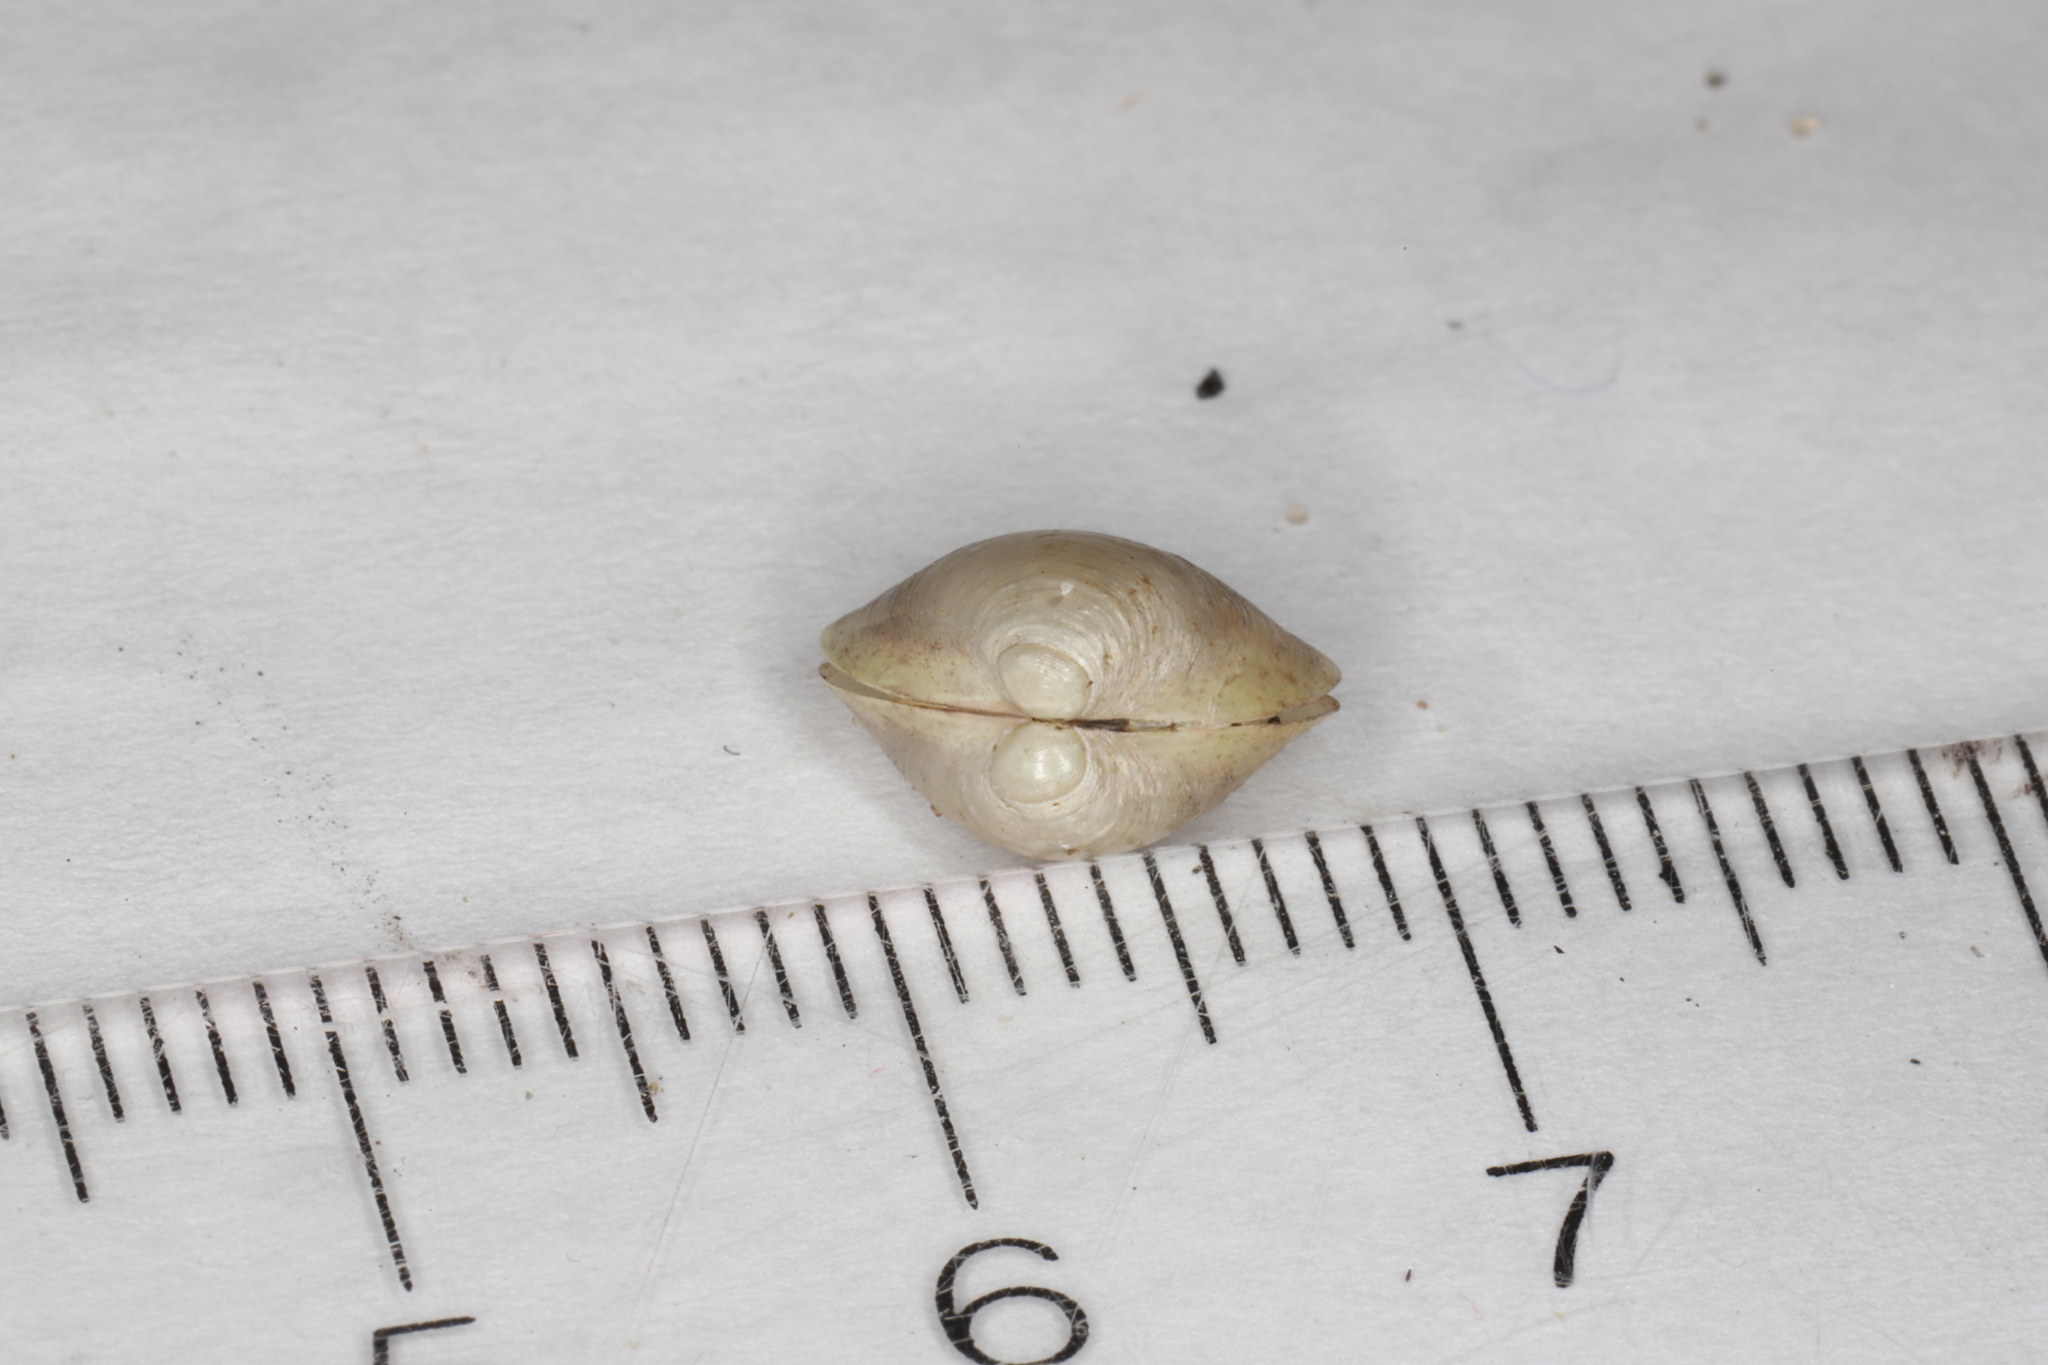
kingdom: Animalia
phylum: Mollusca
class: Bivalvia
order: Sphaeriida
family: Sphaeriidae
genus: Musculium
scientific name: Musculium lacustre
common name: Lake fingernailclam
